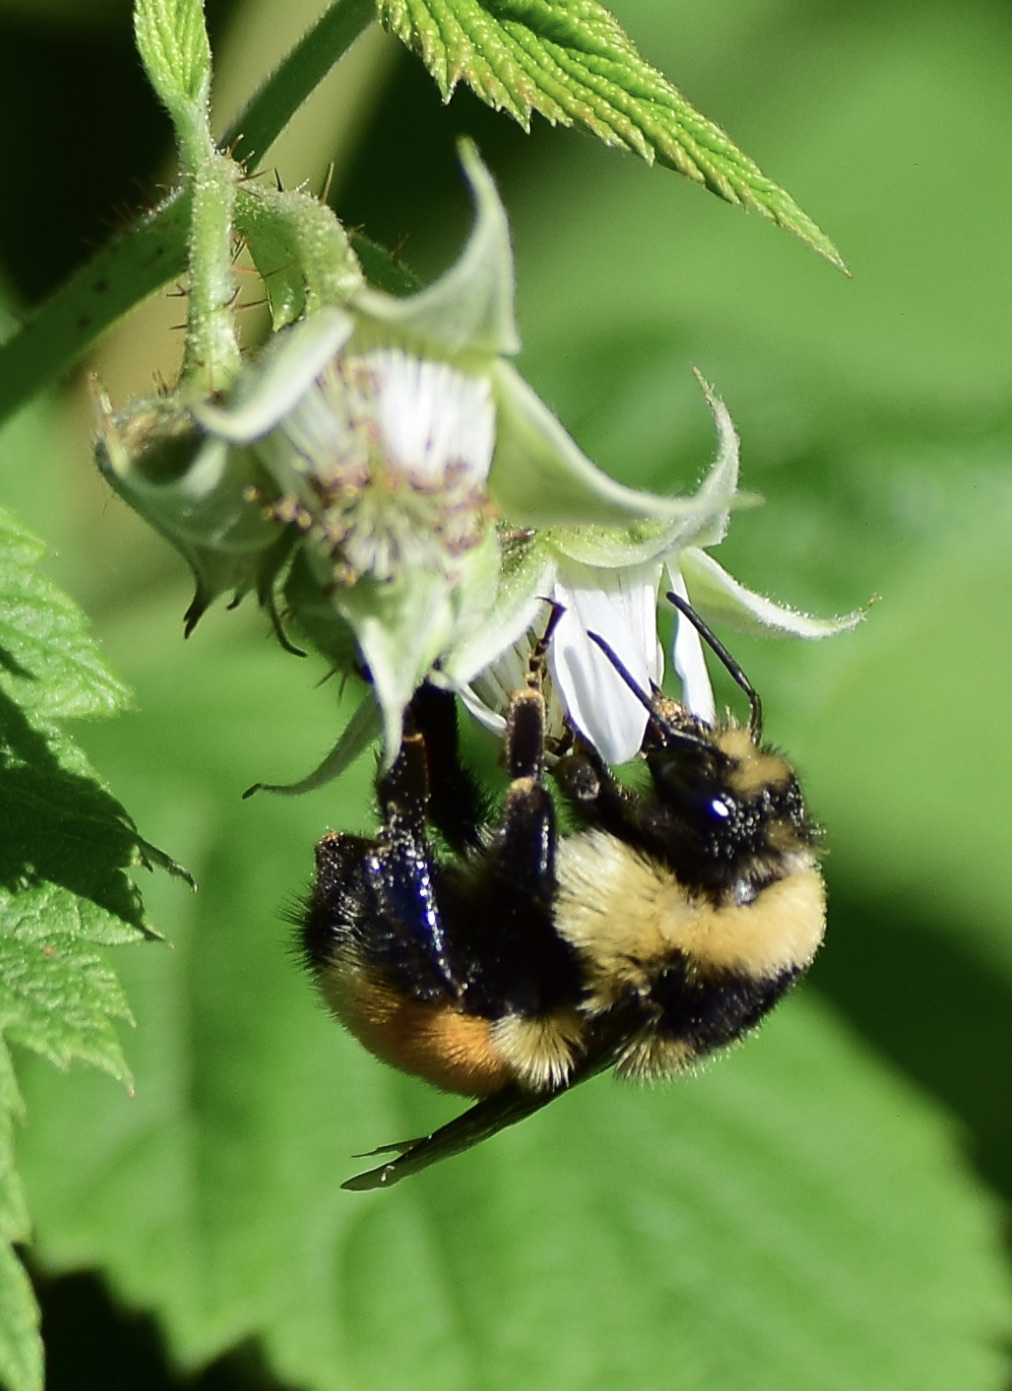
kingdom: Animalia
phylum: Arthropoda
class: Insecta
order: Hymenoptera
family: Apidae
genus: Bombus
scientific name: Bombus ternarius
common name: Tri-colored bumble bee
